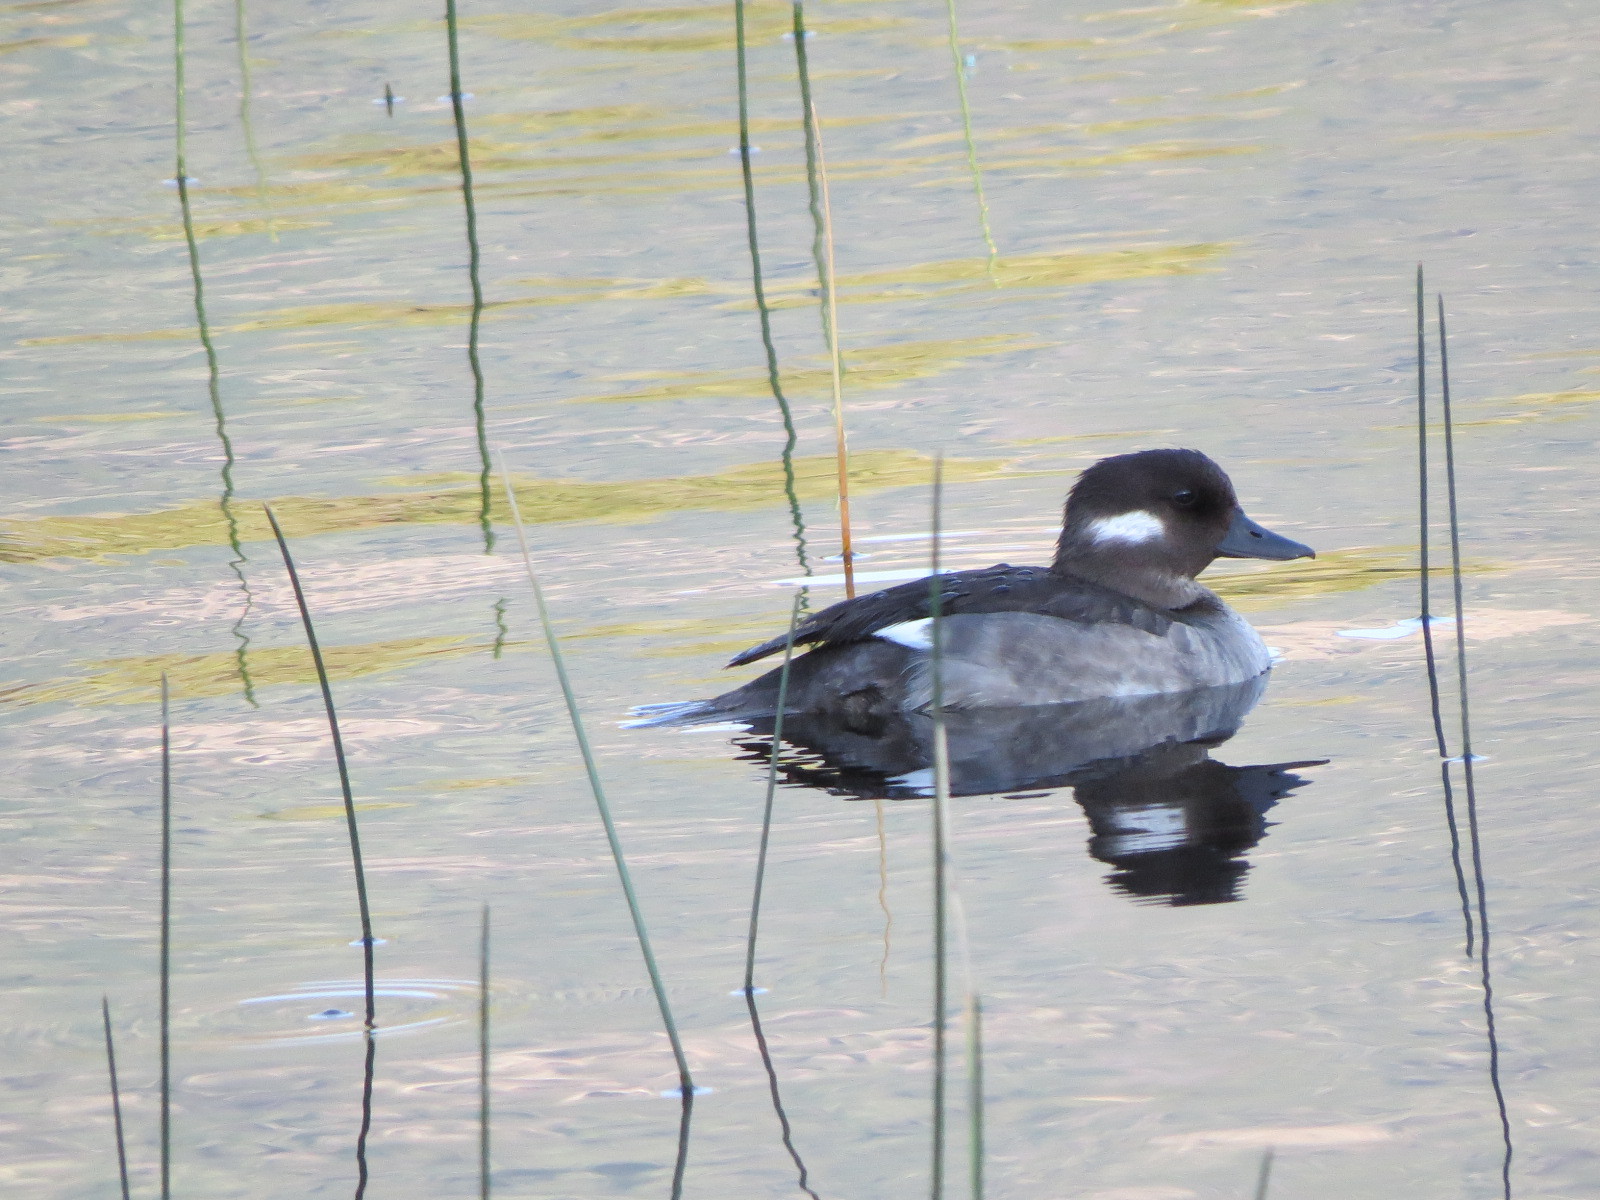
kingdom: Animalia
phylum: Chordata
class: Aves
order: Anseriformes
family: Anatidae
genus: Bucephala
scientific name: Bucephala albeola
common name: Bufflehead
